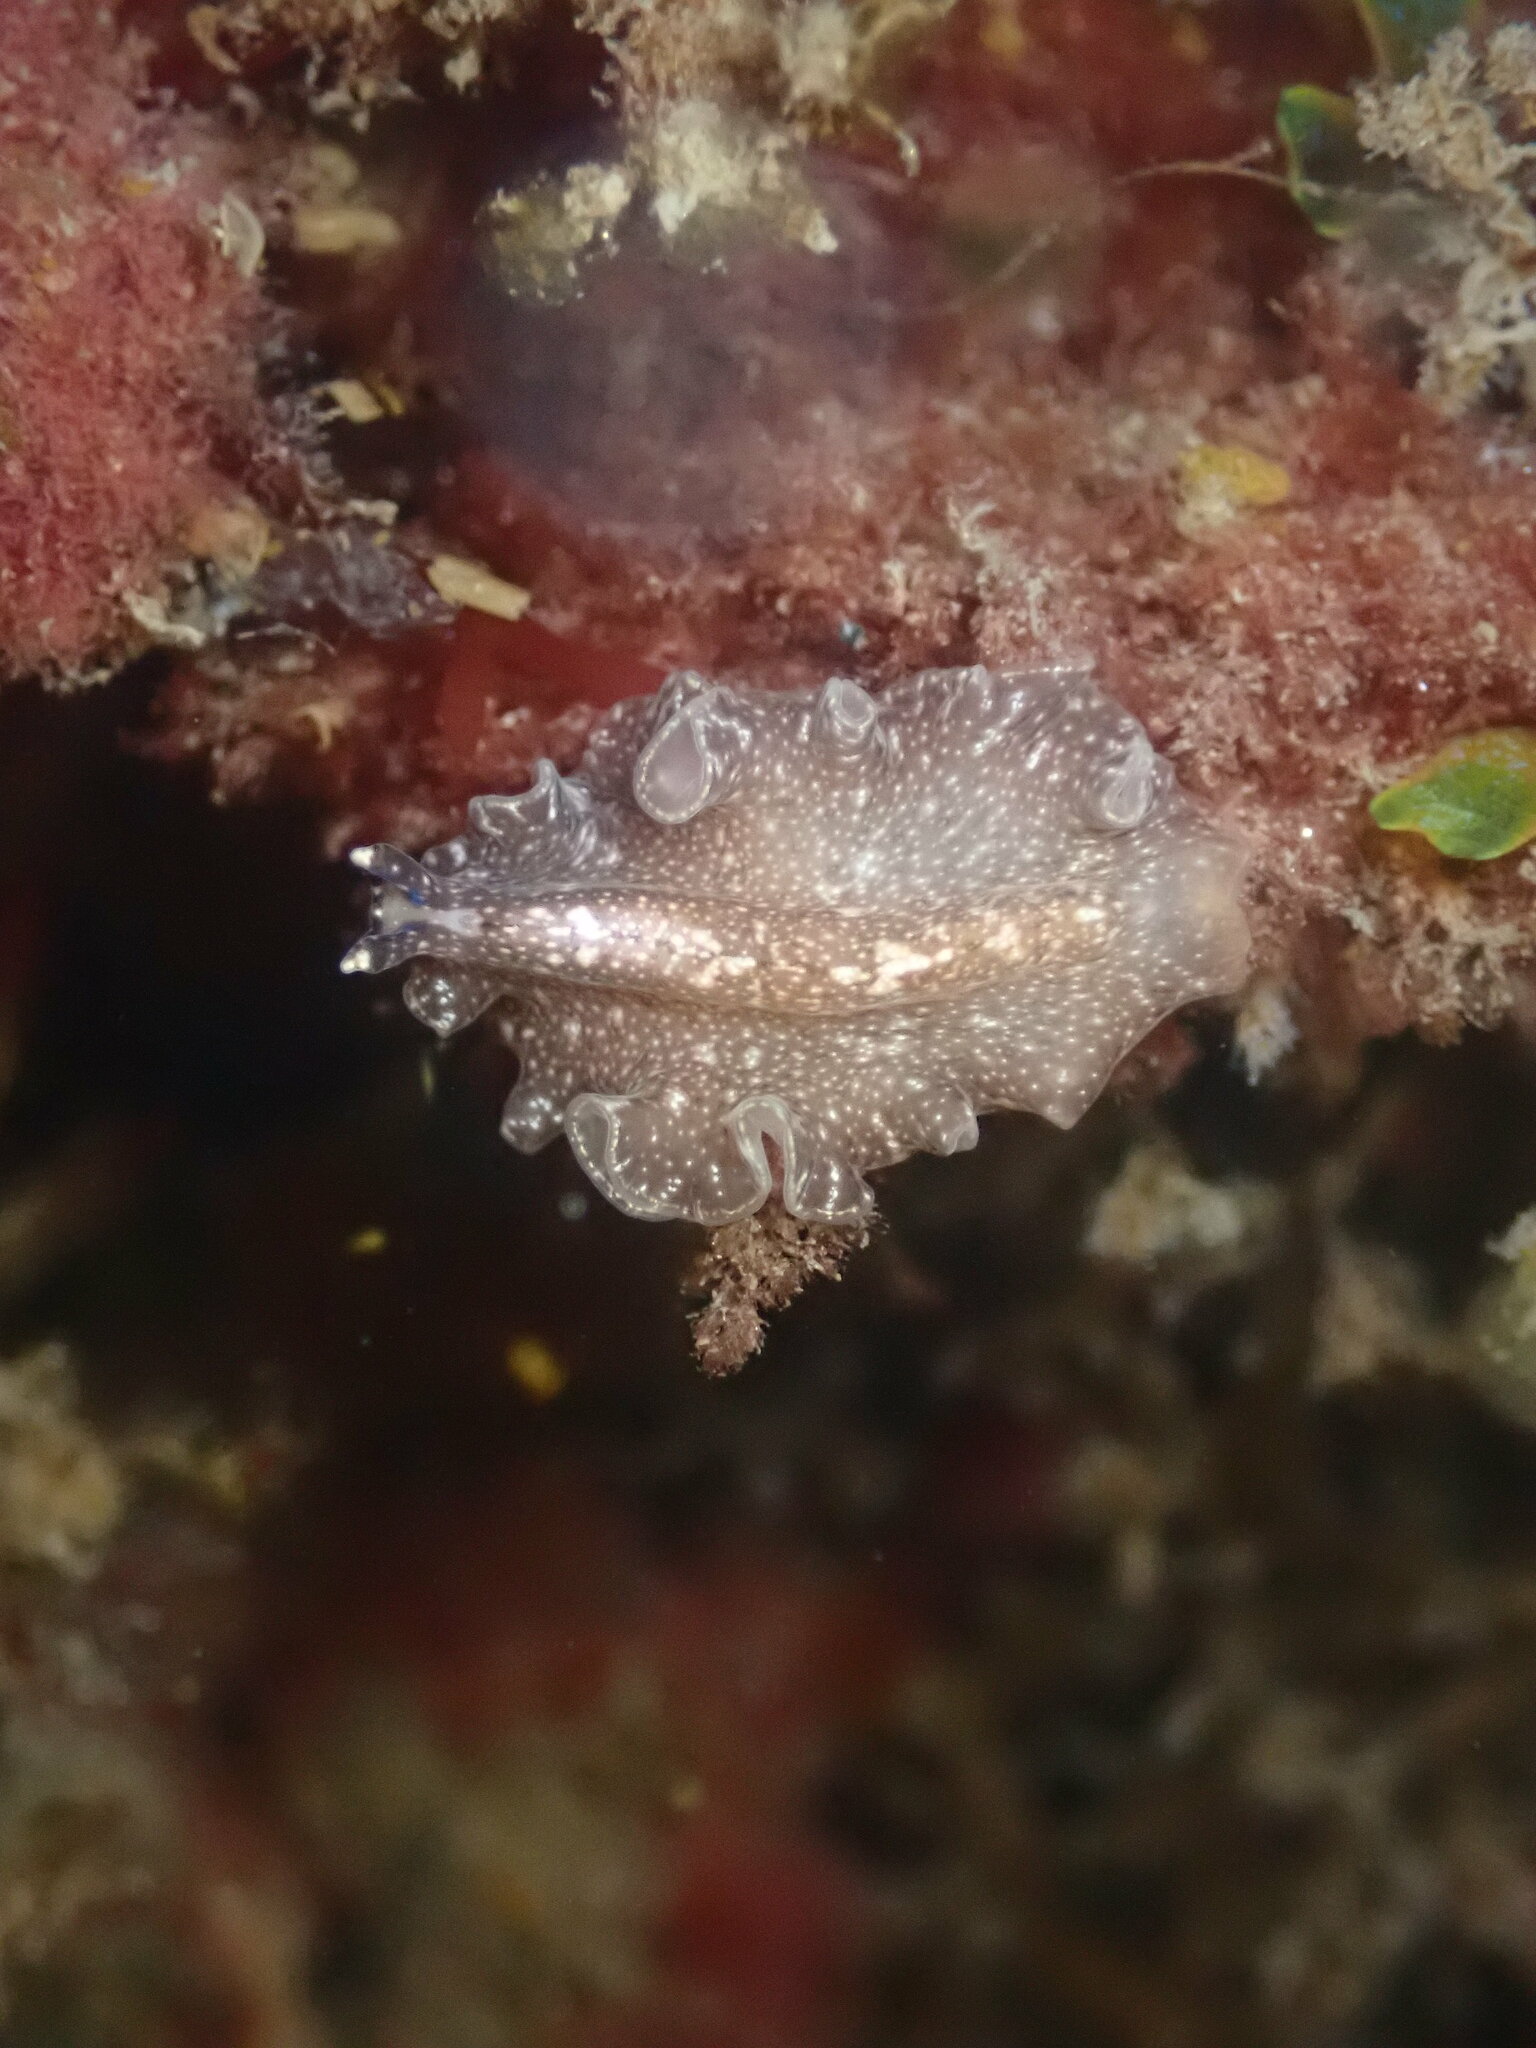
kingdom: Animalia
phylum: Platyhelminthes
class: Turbellaria
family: Pseudocerotidae
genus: Pseudoceros
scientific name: Pseudoceros mexicanus
